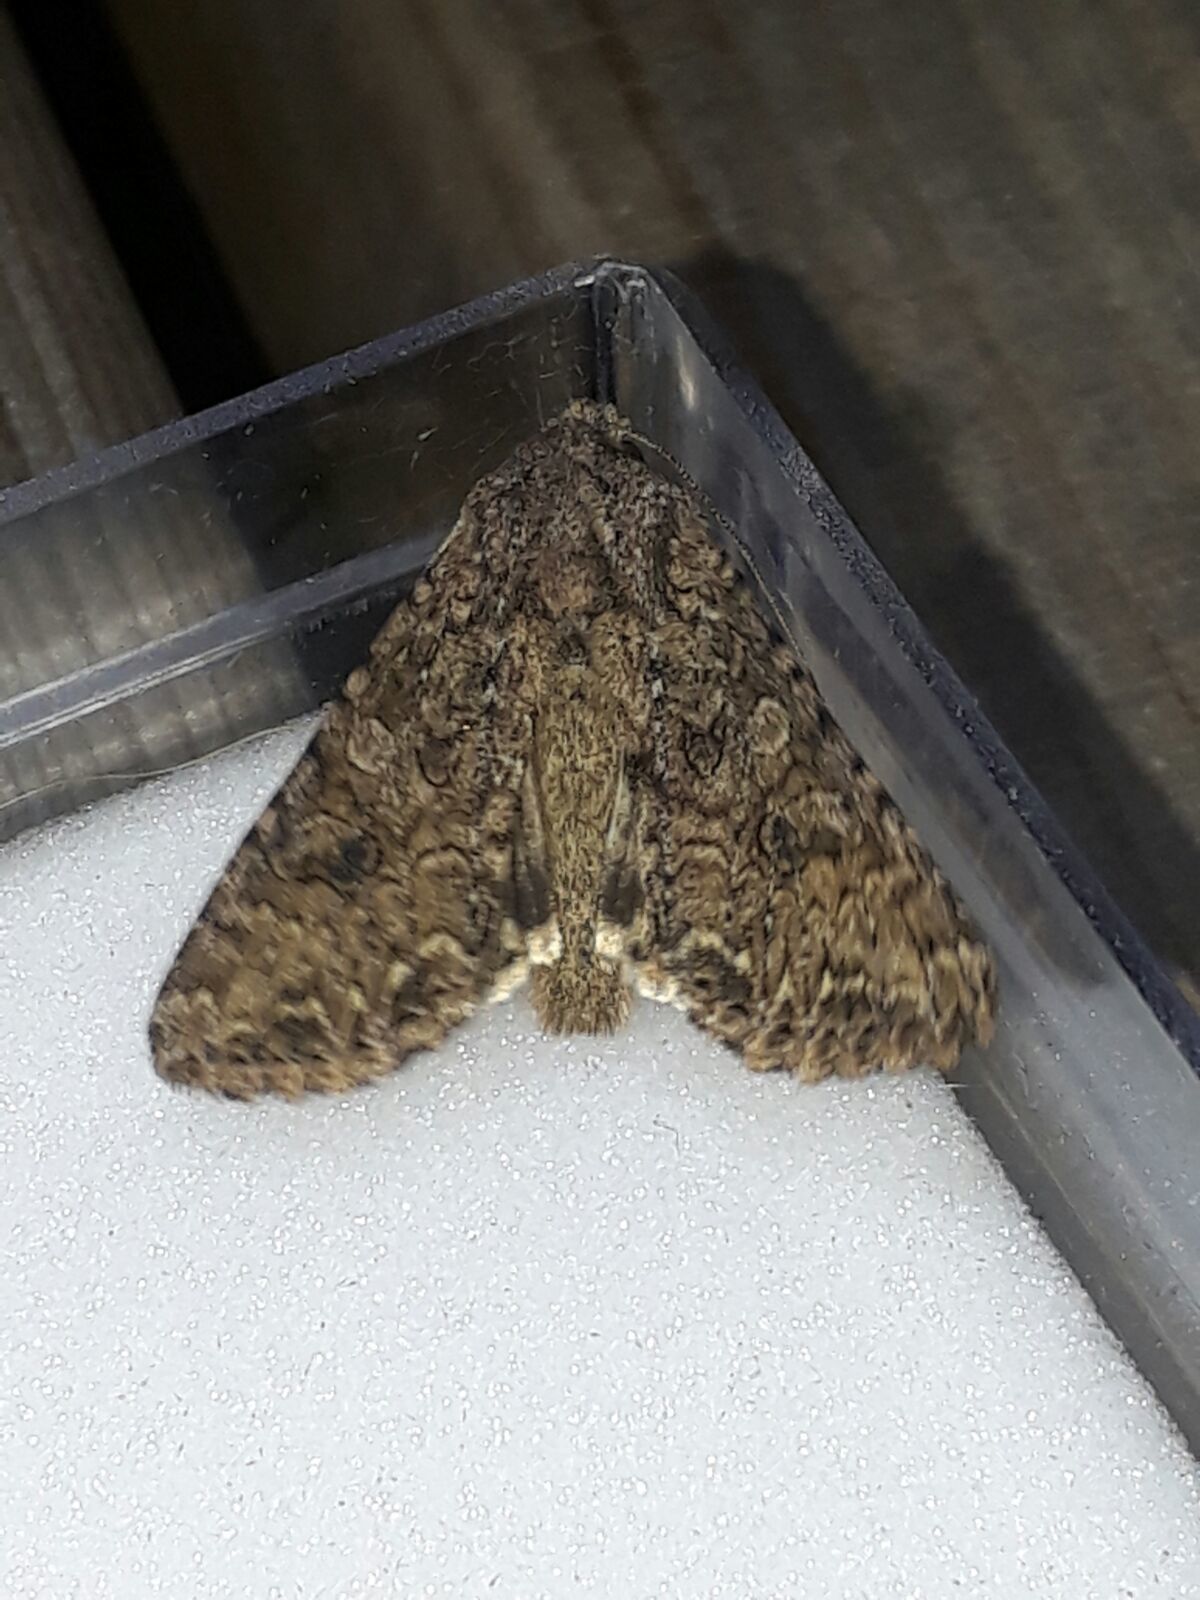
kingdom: Animalia
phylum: Arthropoda
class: Insecta
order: Lepidoptera
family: Noctuidae
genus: Anarta
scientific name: Anarta trifolii
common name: Clover cutworm moth
